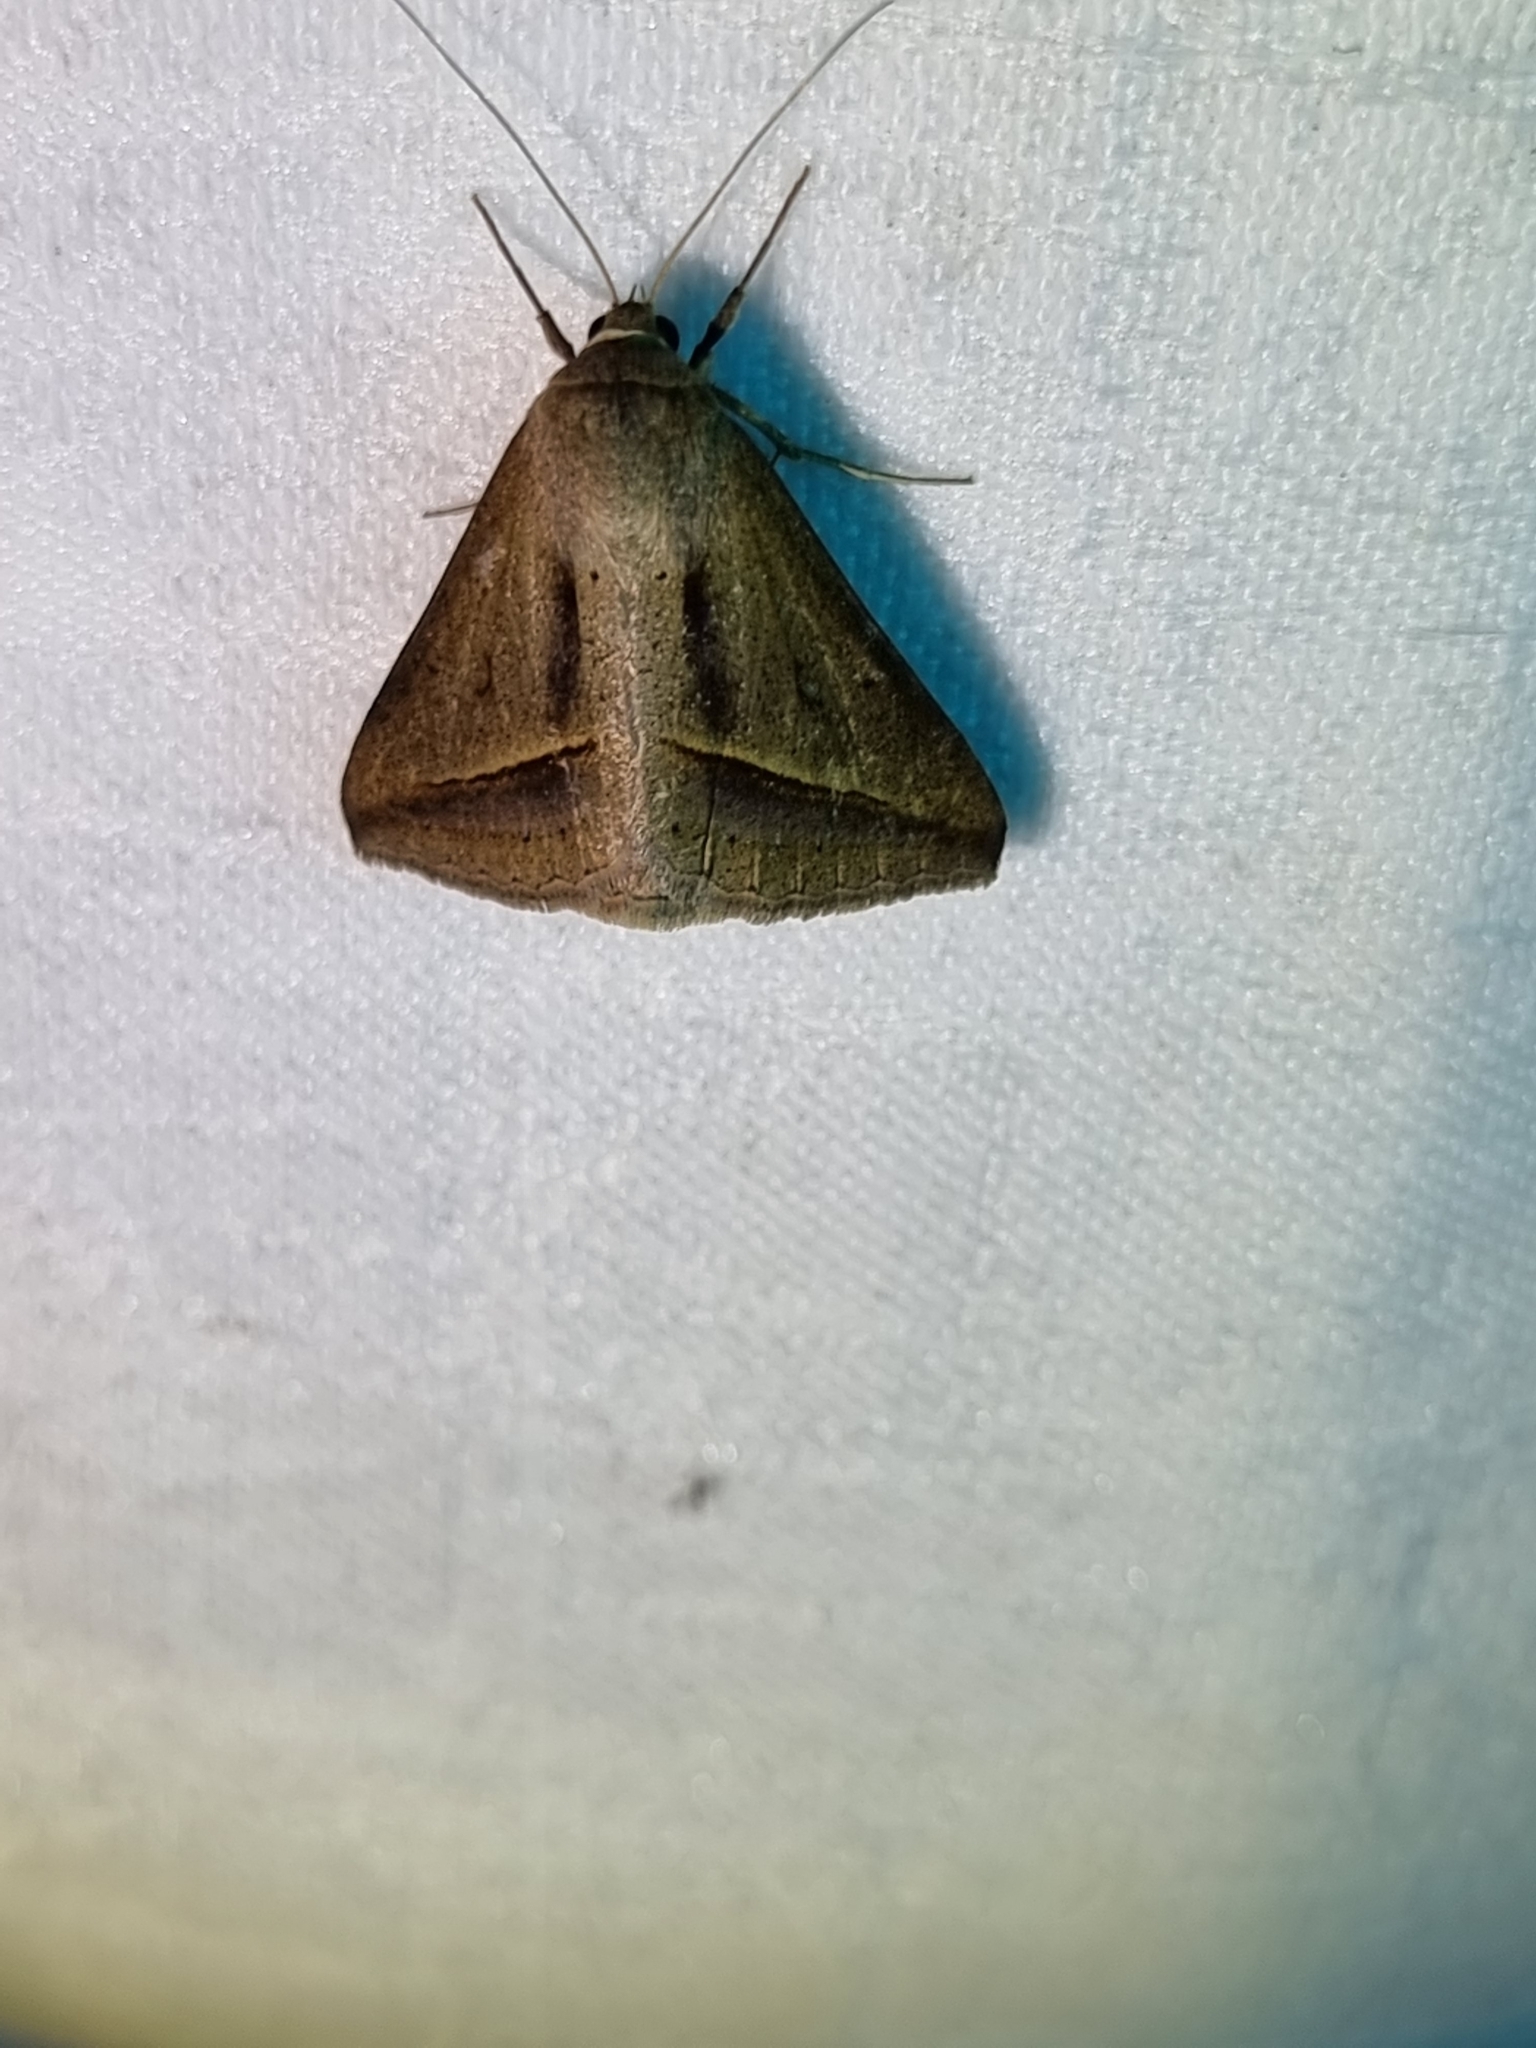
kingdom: Animalia
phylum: Arthropoda
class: Insecta
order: Lepidoptera
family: Erebidae
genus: Mocis
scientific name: Mocis frugalis
